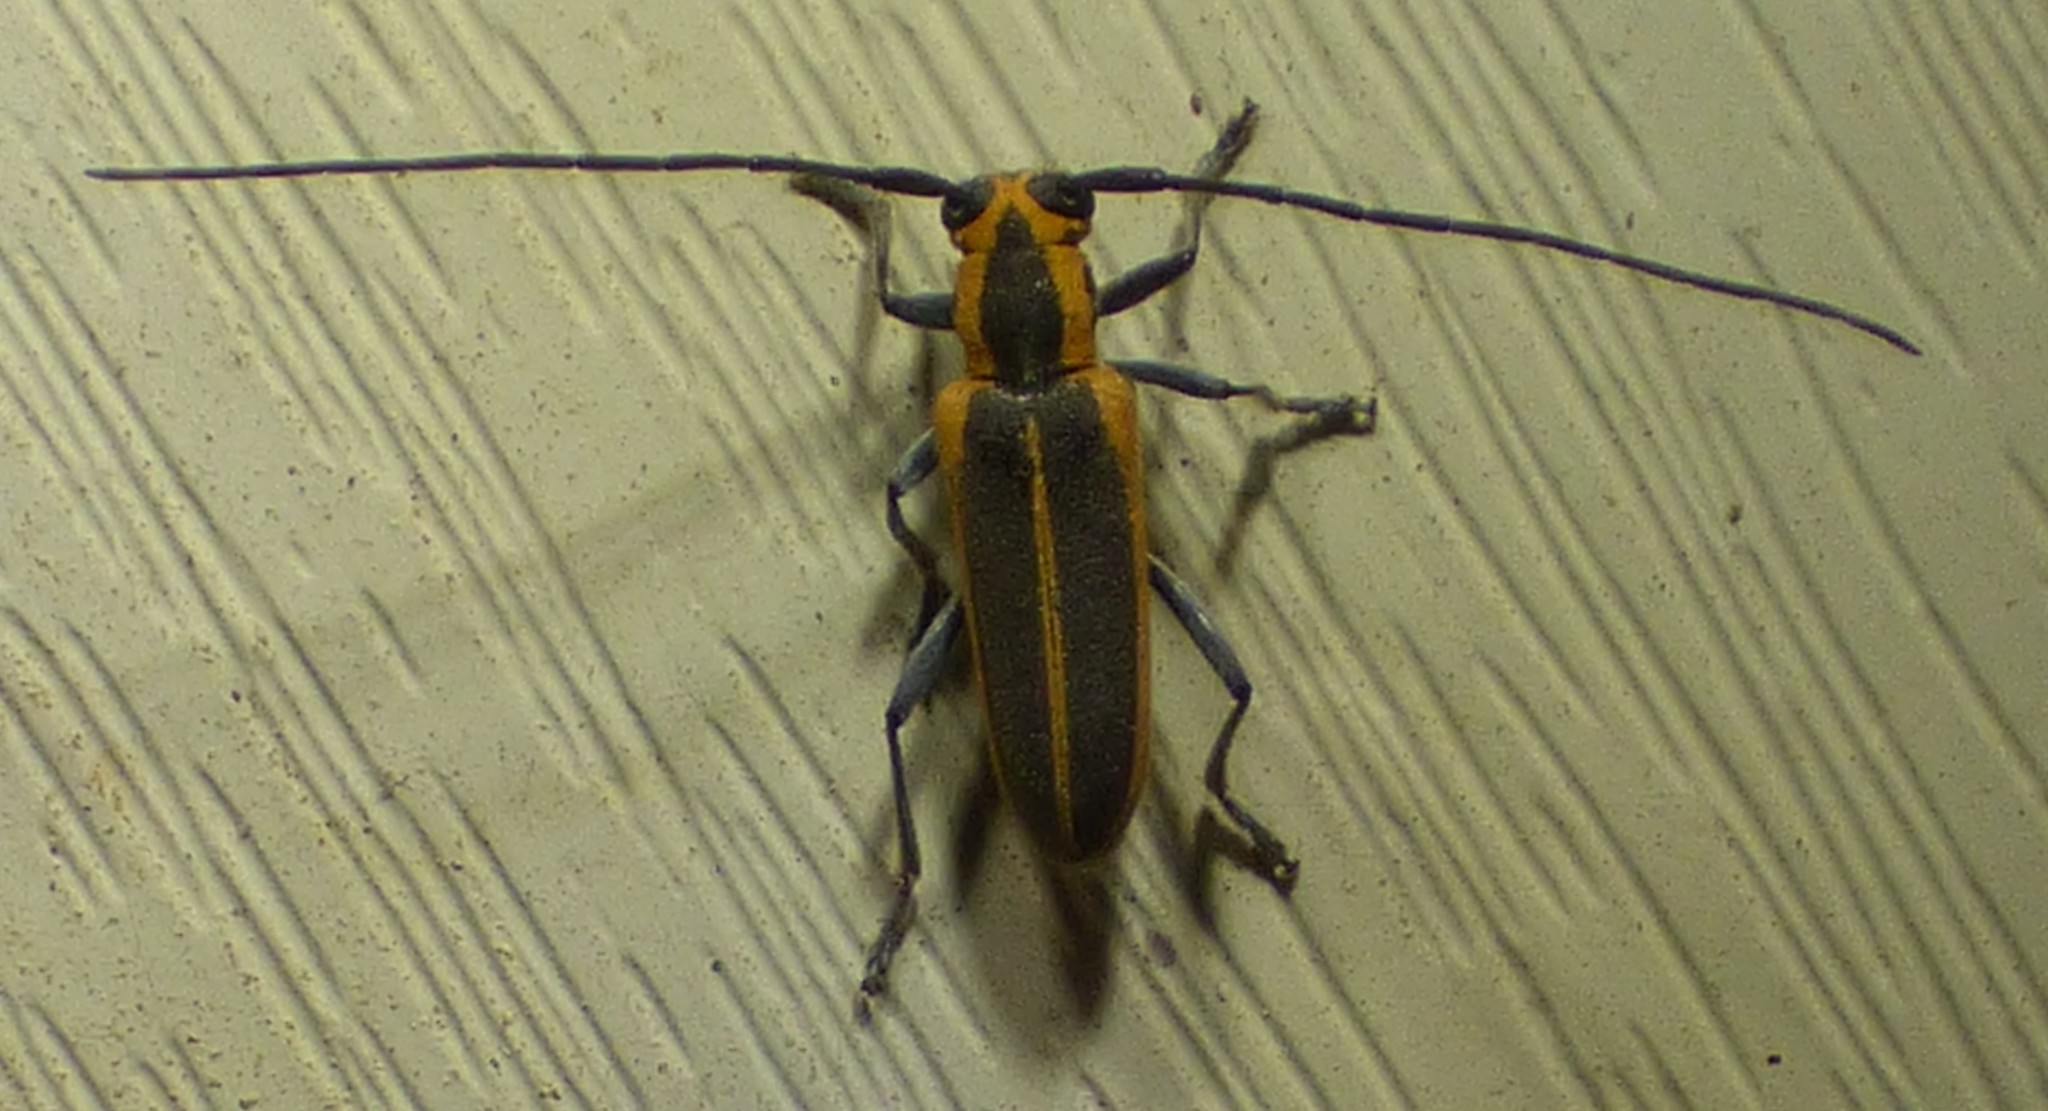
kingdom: Animalia
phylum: Arthropoda
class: Insecta
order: Coleoptera
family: Cerambycidae
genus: Saperda
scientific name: Saperda lateralis
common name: Red-edged saperda
